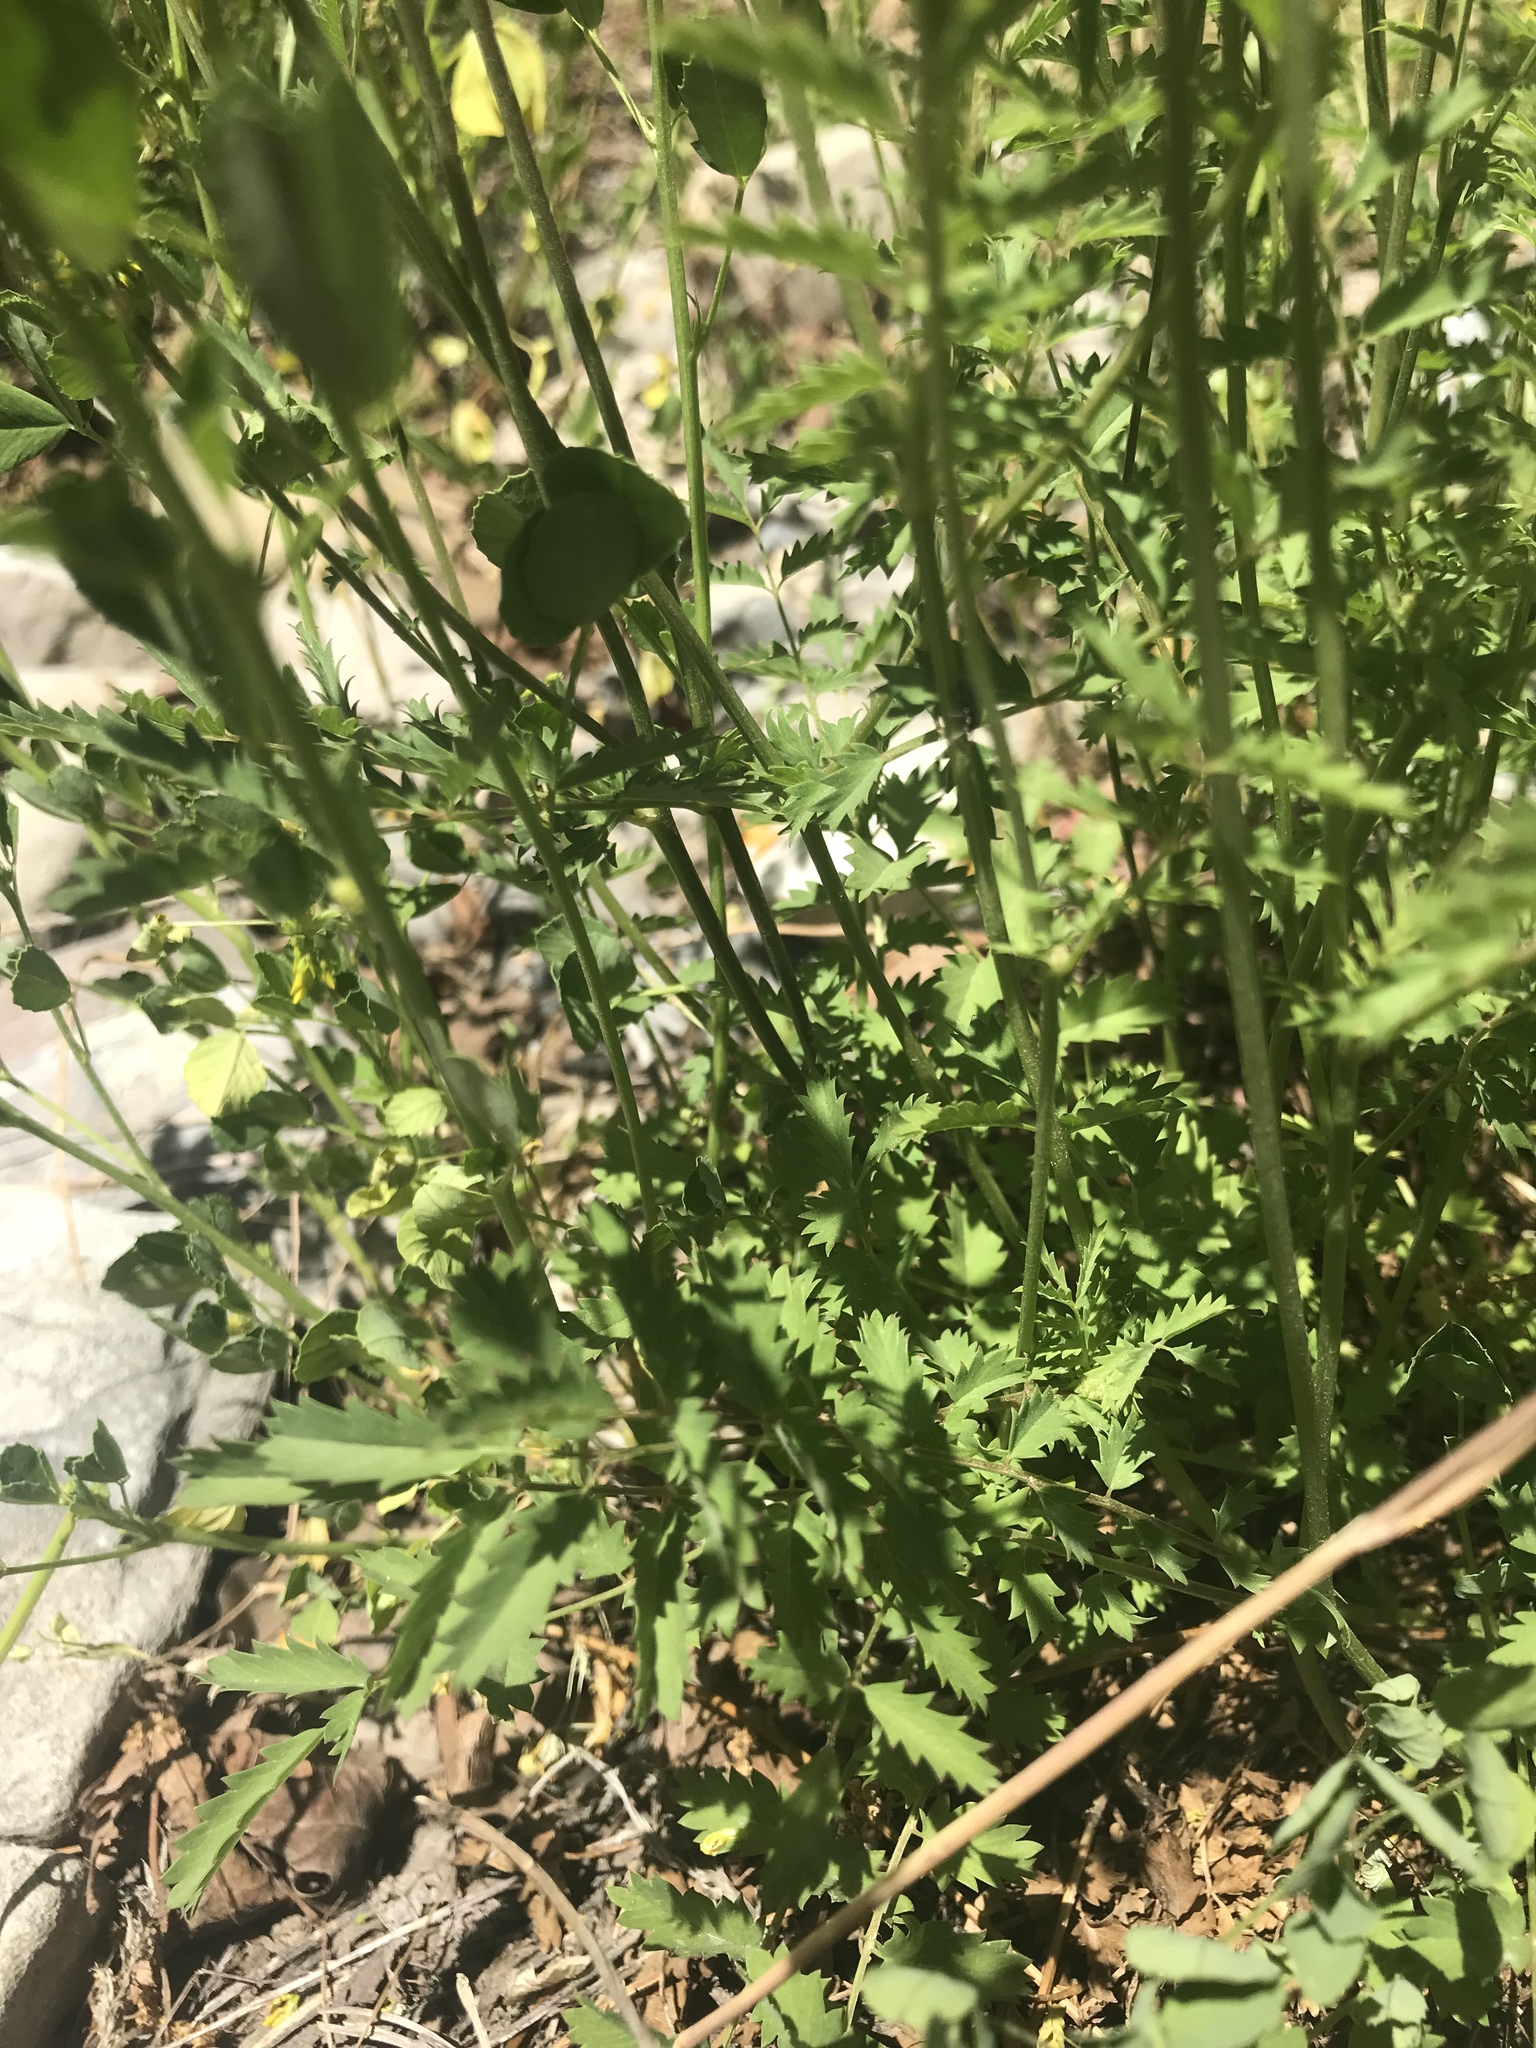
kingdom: Plantae
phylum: Tracheophyta
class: Magnoliopsida
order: Rosales
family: Rosaceae
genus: Poterium
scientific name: Poterium sanguisorba
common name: Salad burnet
